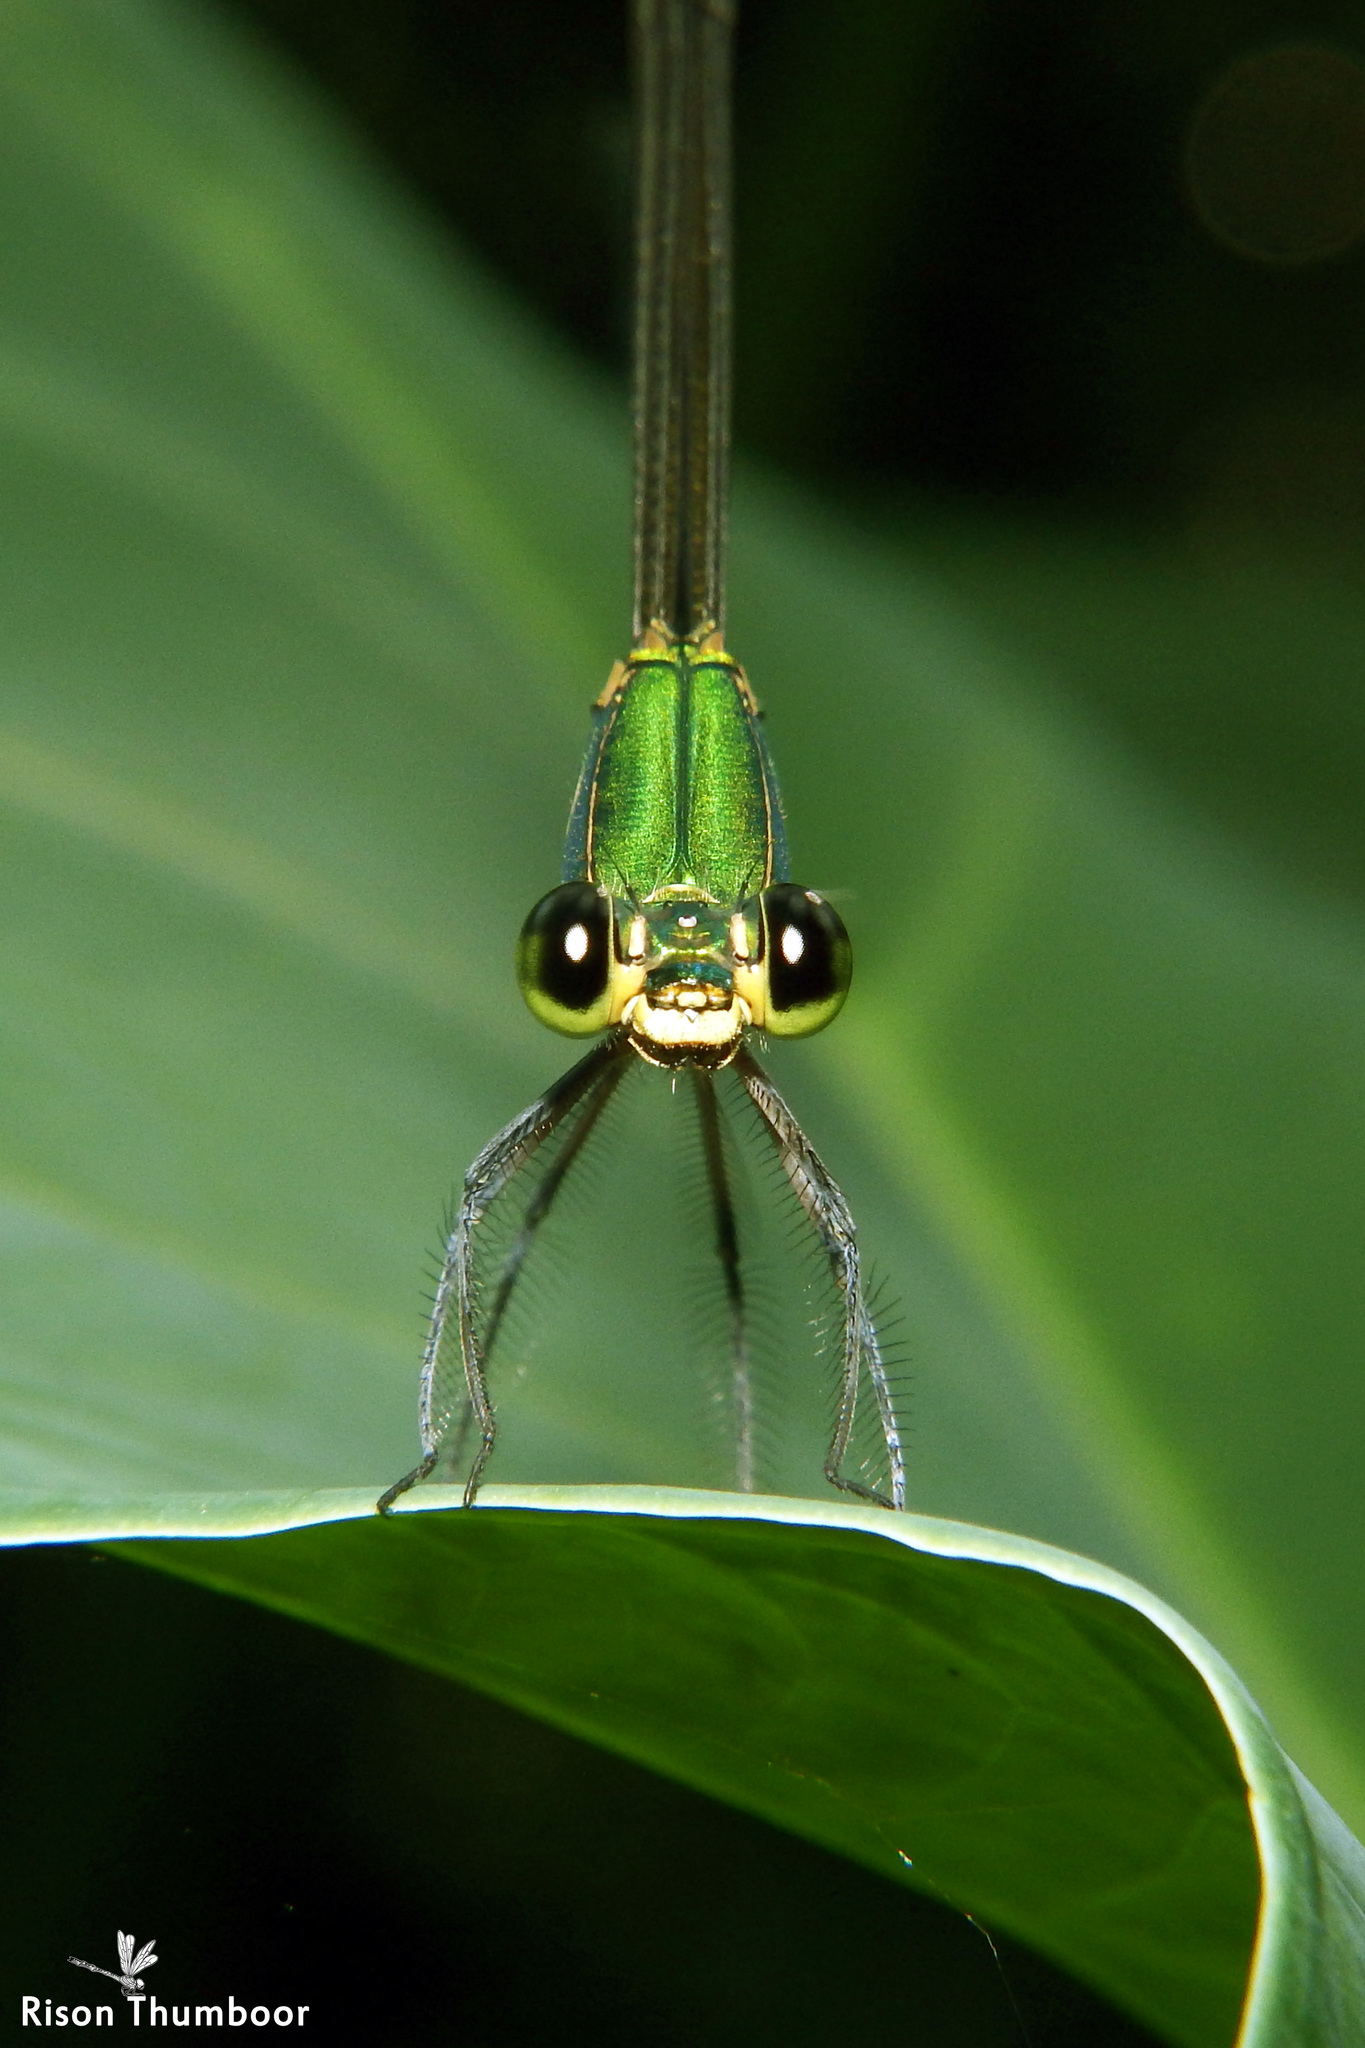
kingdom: Animalia
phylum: Arthropoda
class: Insecta
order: Odonata
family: Calopterygidae
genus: Vestalis
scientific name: Vestalis gracilis
